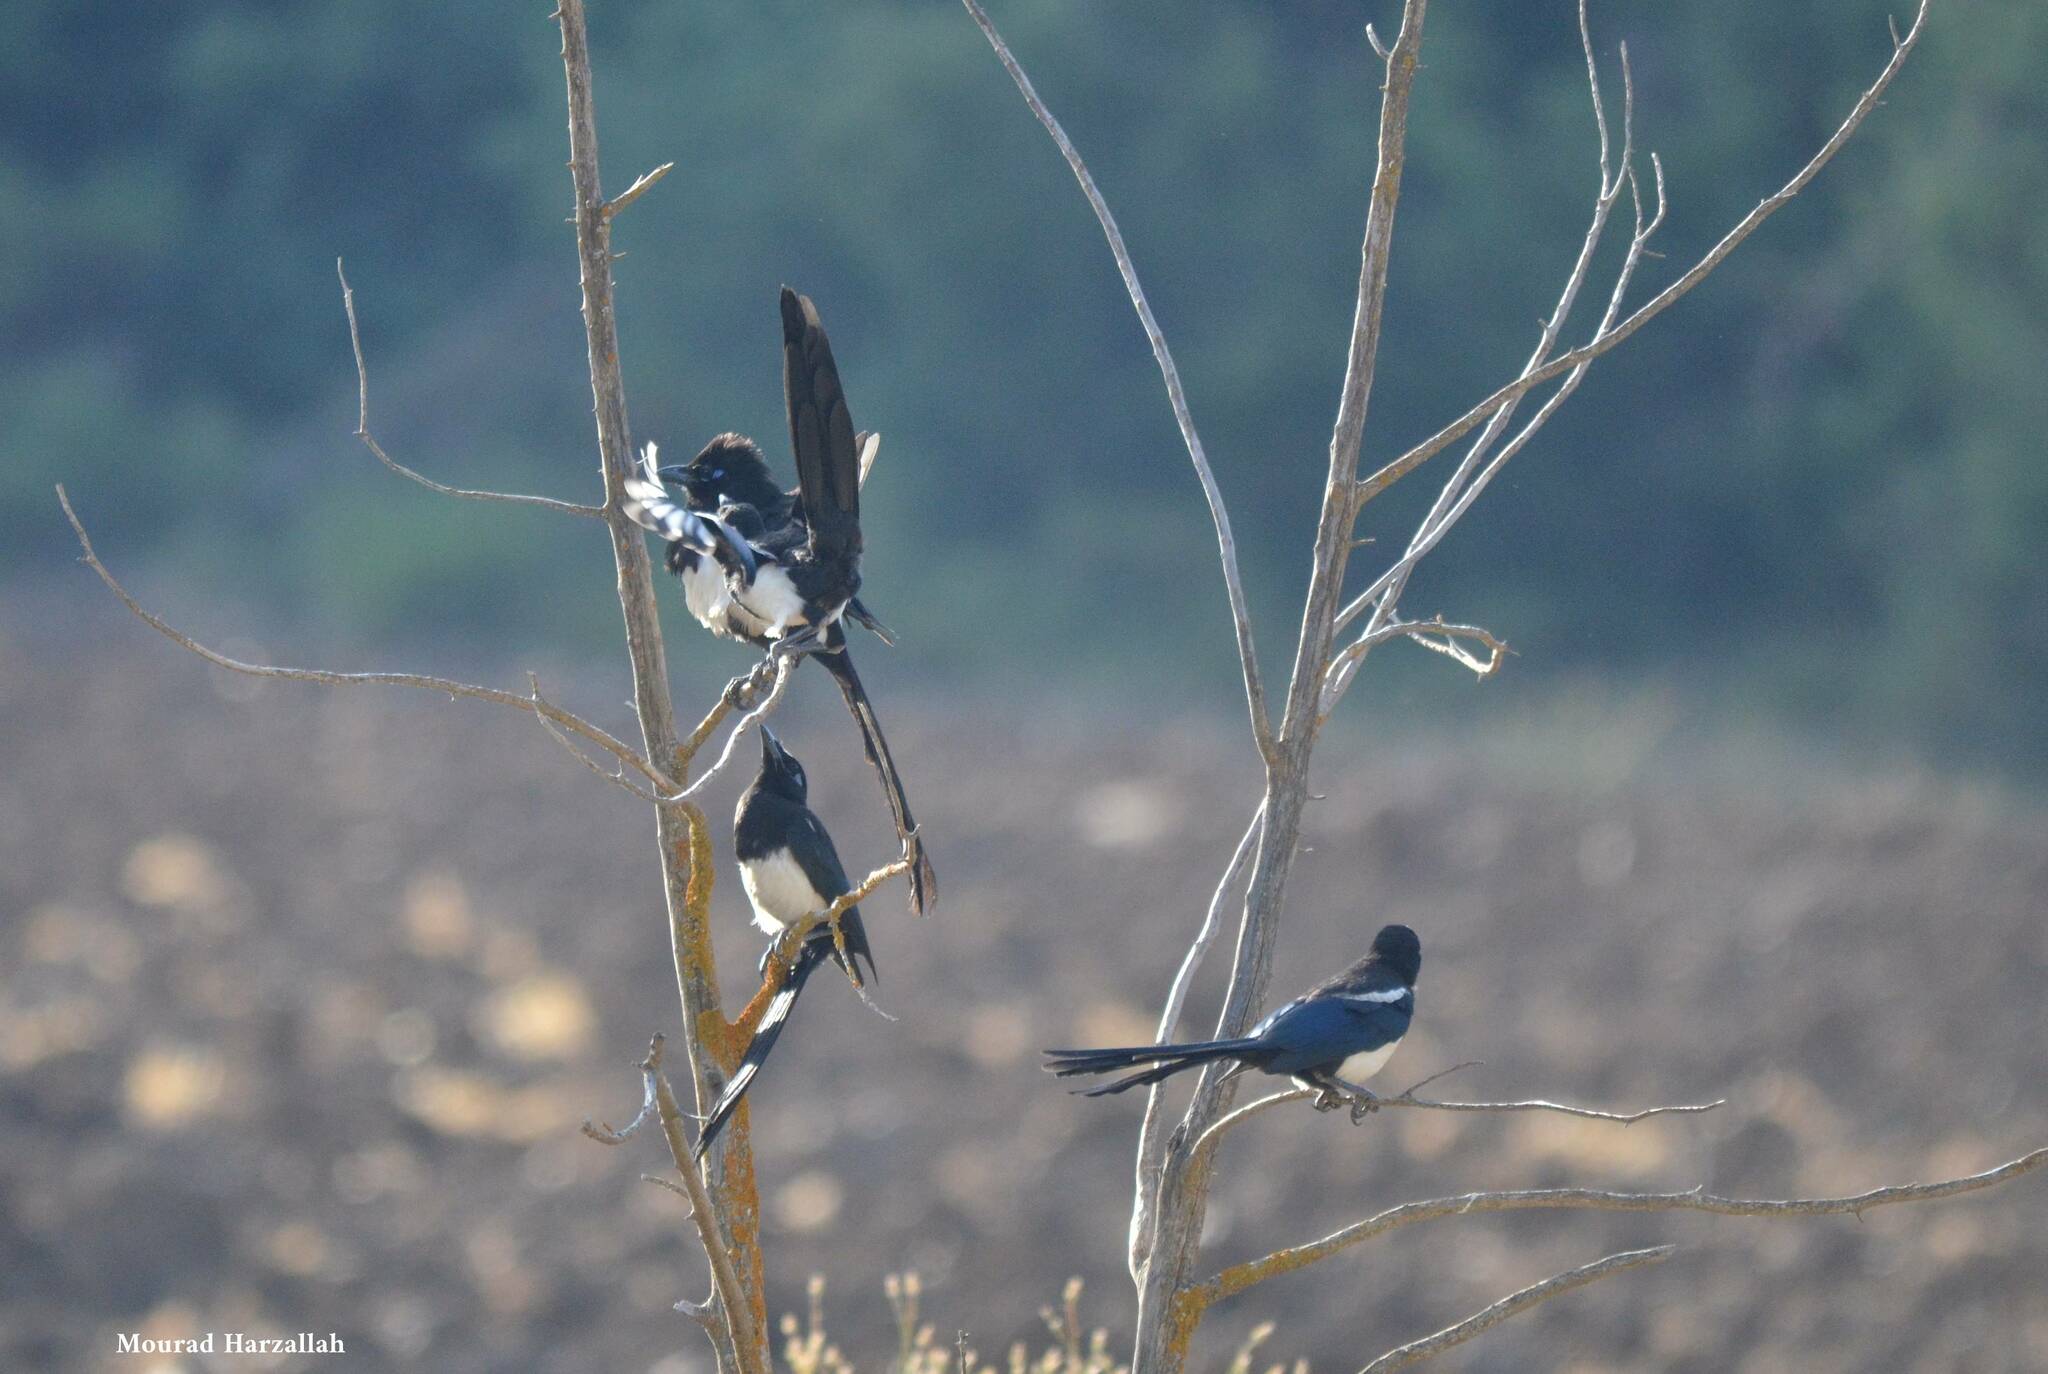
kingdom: Animalia
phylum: Chordata
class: Aves
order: Passeriformes
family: Corvidae
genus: Pica
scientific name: Pica mauritanica
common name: Maghreb magpie
